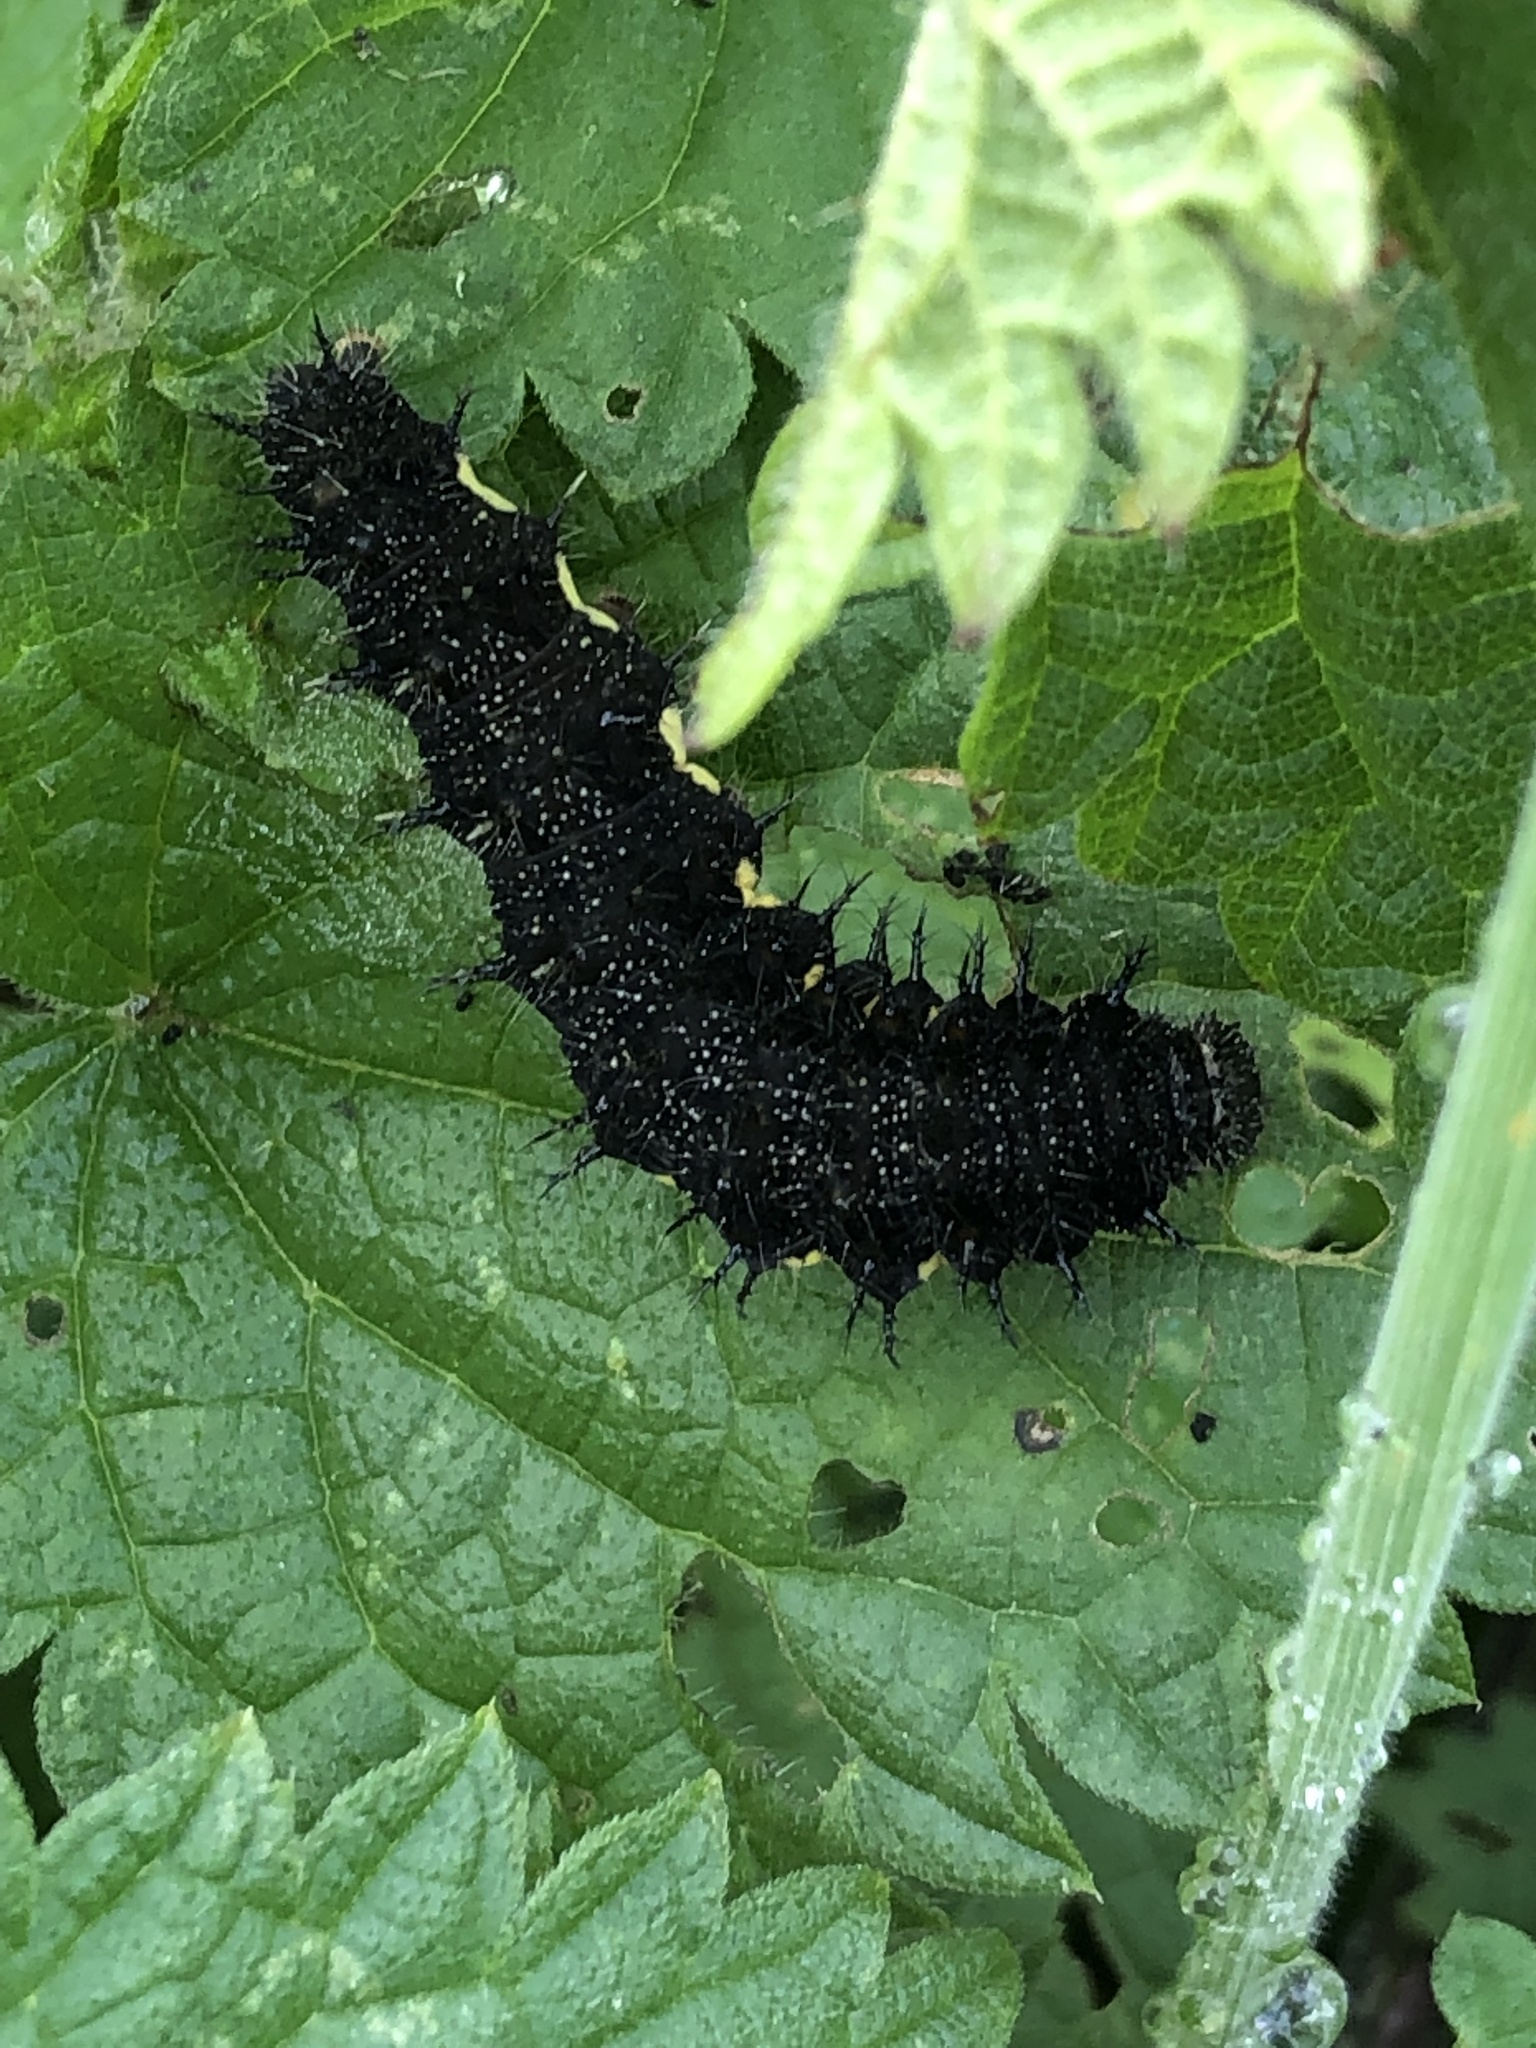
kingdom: Animalia
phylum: Arthropoda
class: Insecta
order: Lepidoptera
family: Nymphalidae
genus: Vanessa
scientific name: Vanessa atalanta
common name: Red admiral
